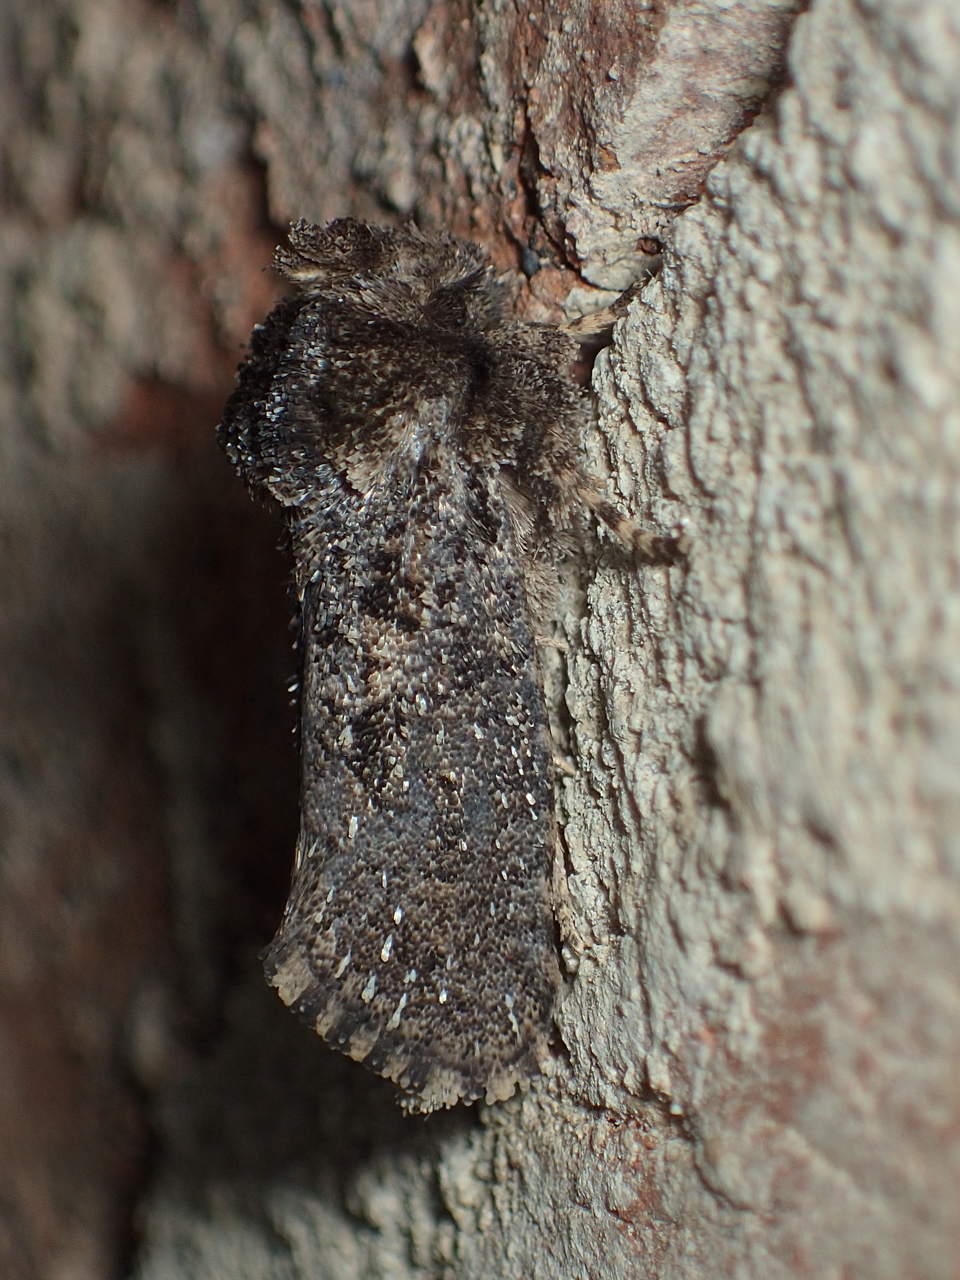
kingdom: Animalia
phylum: Arthropoda
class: Insecta
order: Lepidoptera
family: Tineidae
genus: Acrolophus
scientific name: Acrolophus arcanella
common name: Arcane grass tubeworm moth
